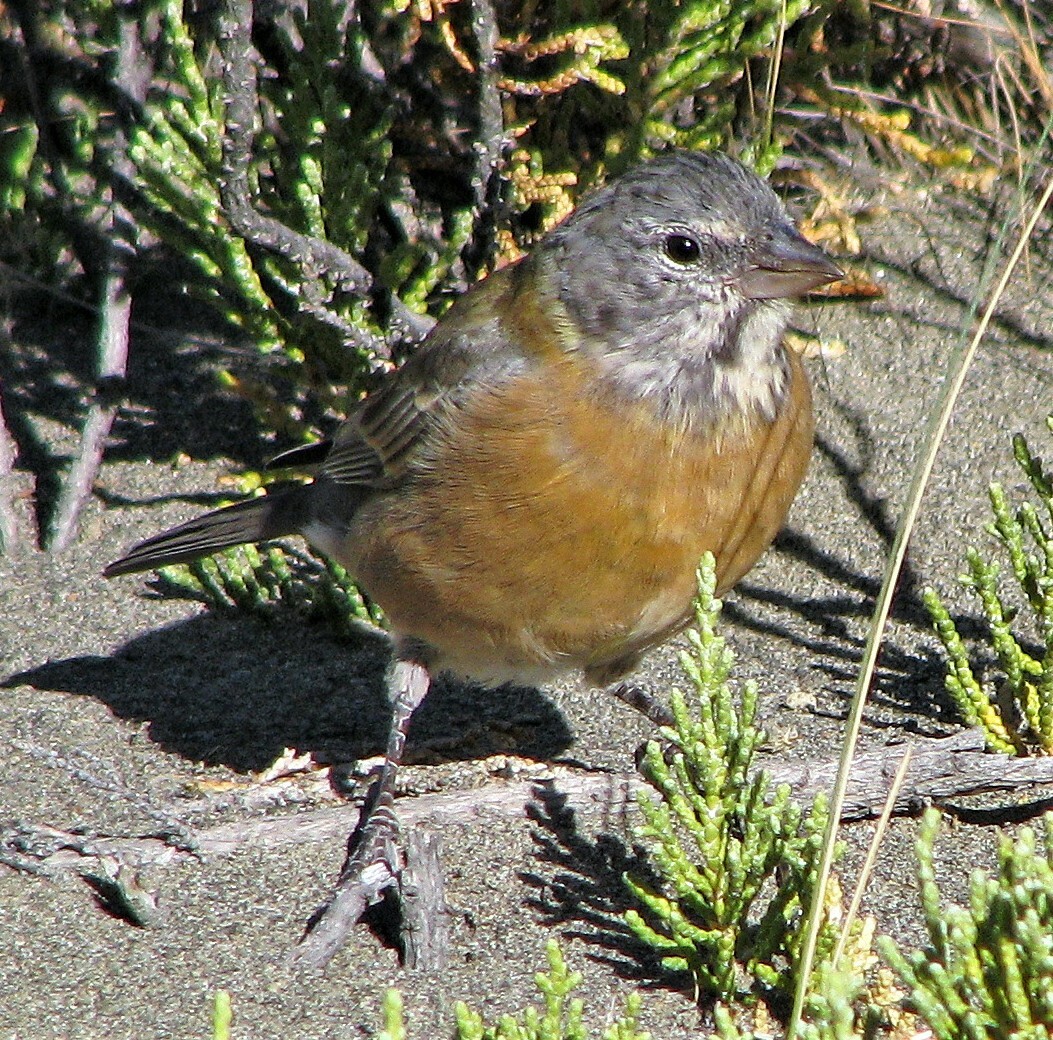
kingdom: Animalia
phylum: Chordata
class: Aves
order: Passeriformes
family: Thraupidae
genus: Phrygilus
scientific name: Phrygilus gayi
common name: Grey-hooded sierra finch
